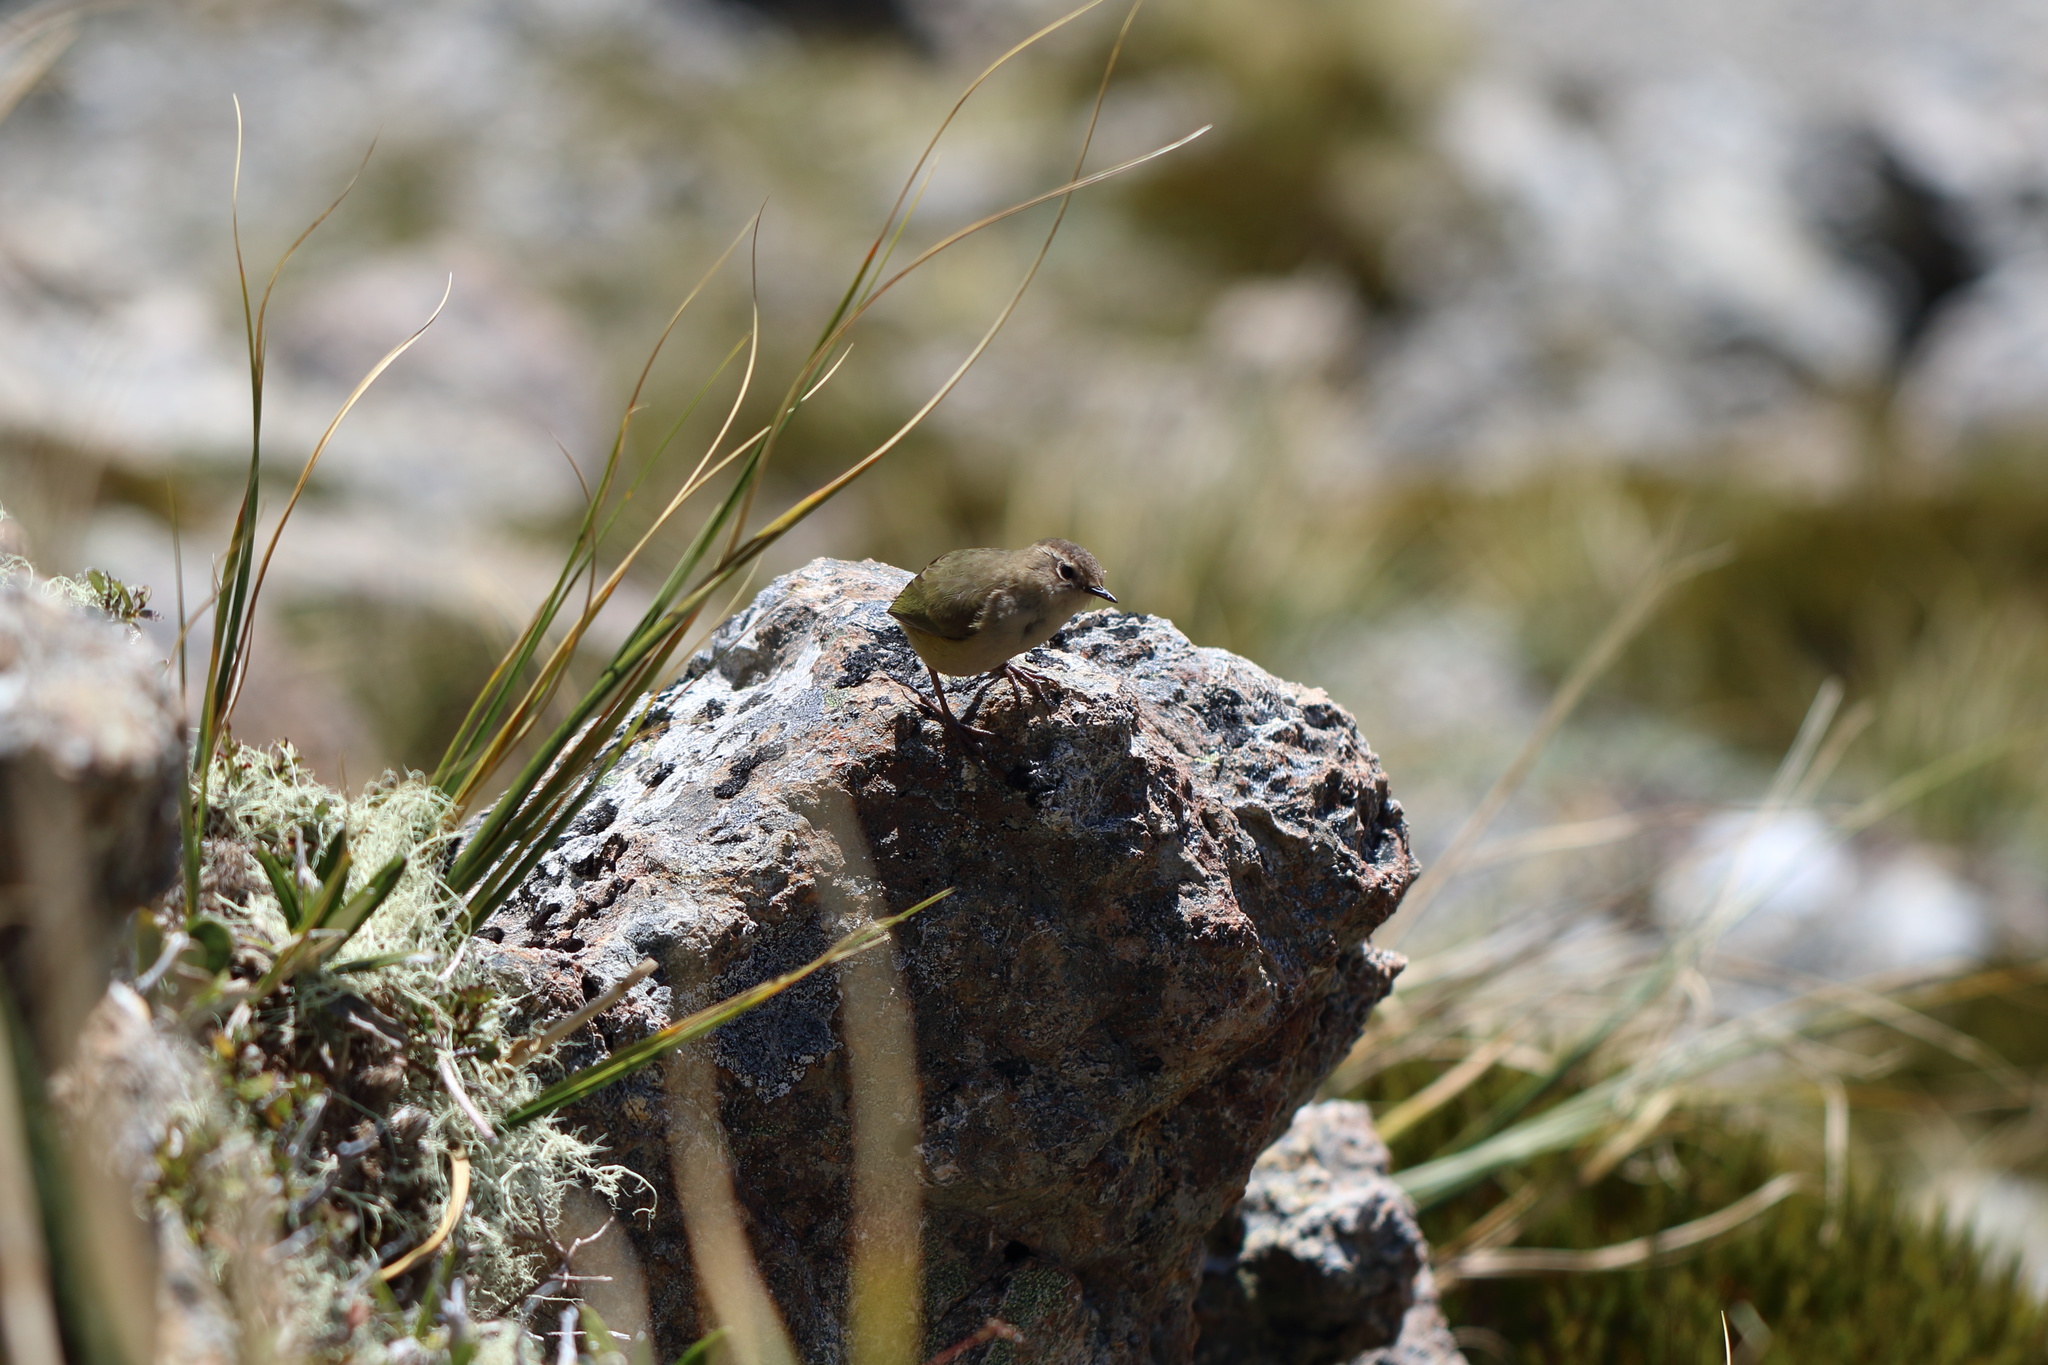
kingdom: Animalia
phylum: Chordata
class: Aves
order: Passeriformes
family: Acanthisittidae
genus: Xenicus
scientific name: Xenicus gilviventris
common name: New zealand rockwren
